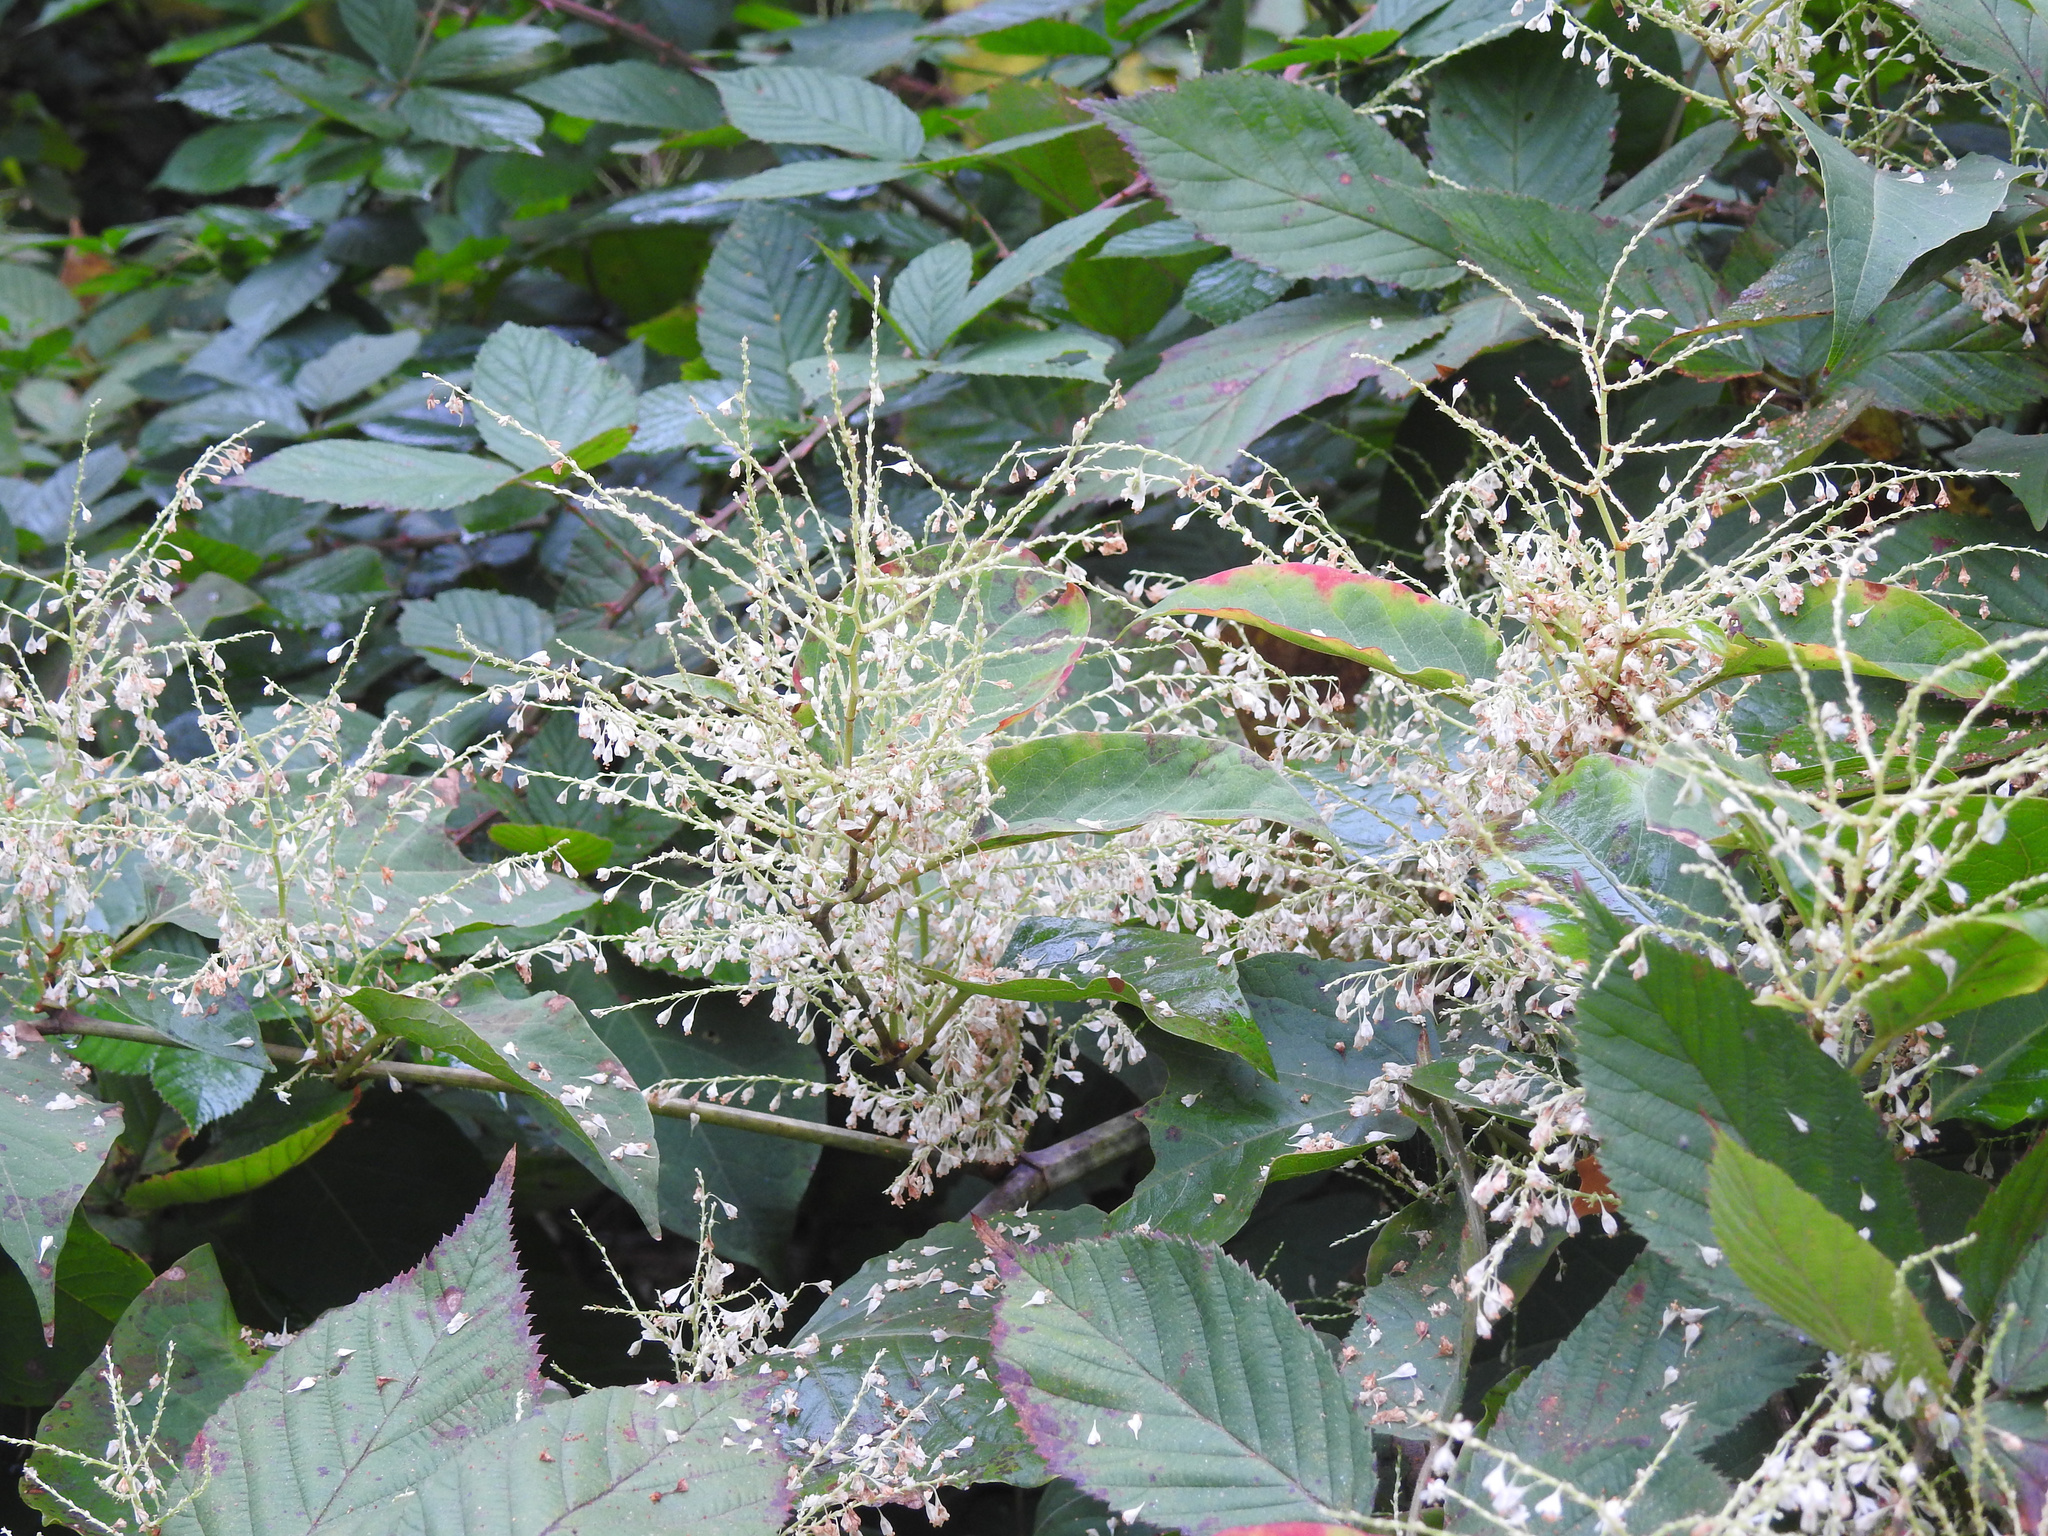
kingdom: Plantae
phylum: Tracheophyta
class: Magnoliopsida
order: Caryophyllales
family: Polygonaceae
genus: Reynoutria
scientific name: Reynoutria japonica
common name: Japanese knotweed
